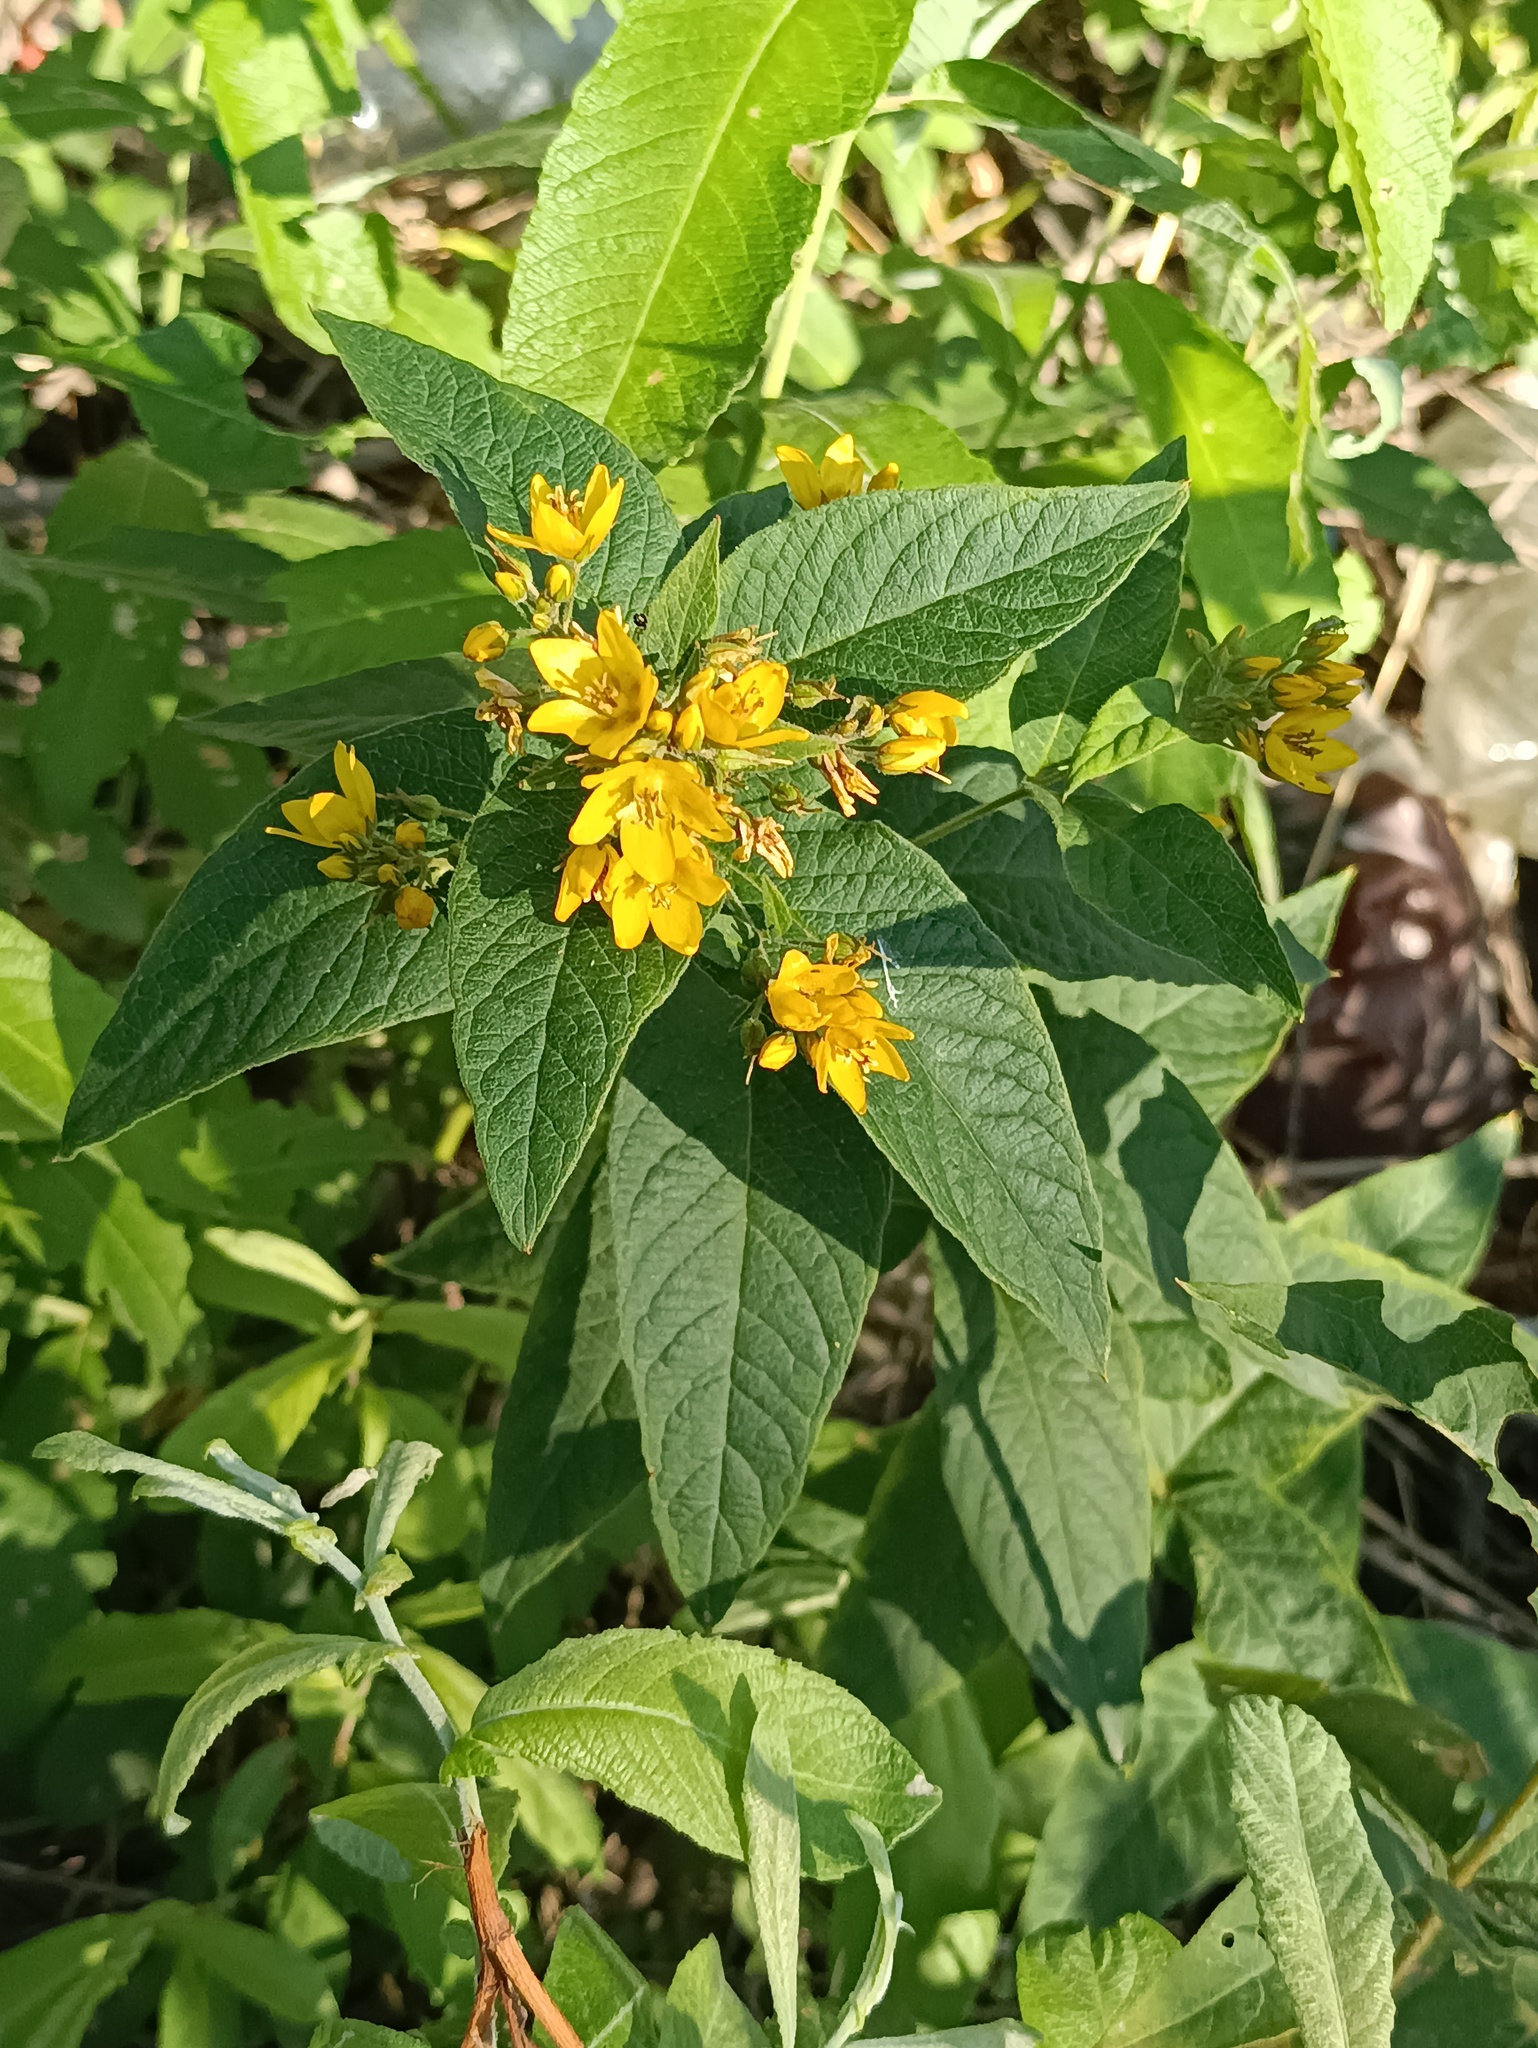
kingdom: Plantae
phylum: Tracheophyta
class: Magnoliopsida
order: Ericales
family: Primulaceae
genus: Lysimachia
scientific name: Lysimachia vulgaris
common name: Yellow loosestrife
